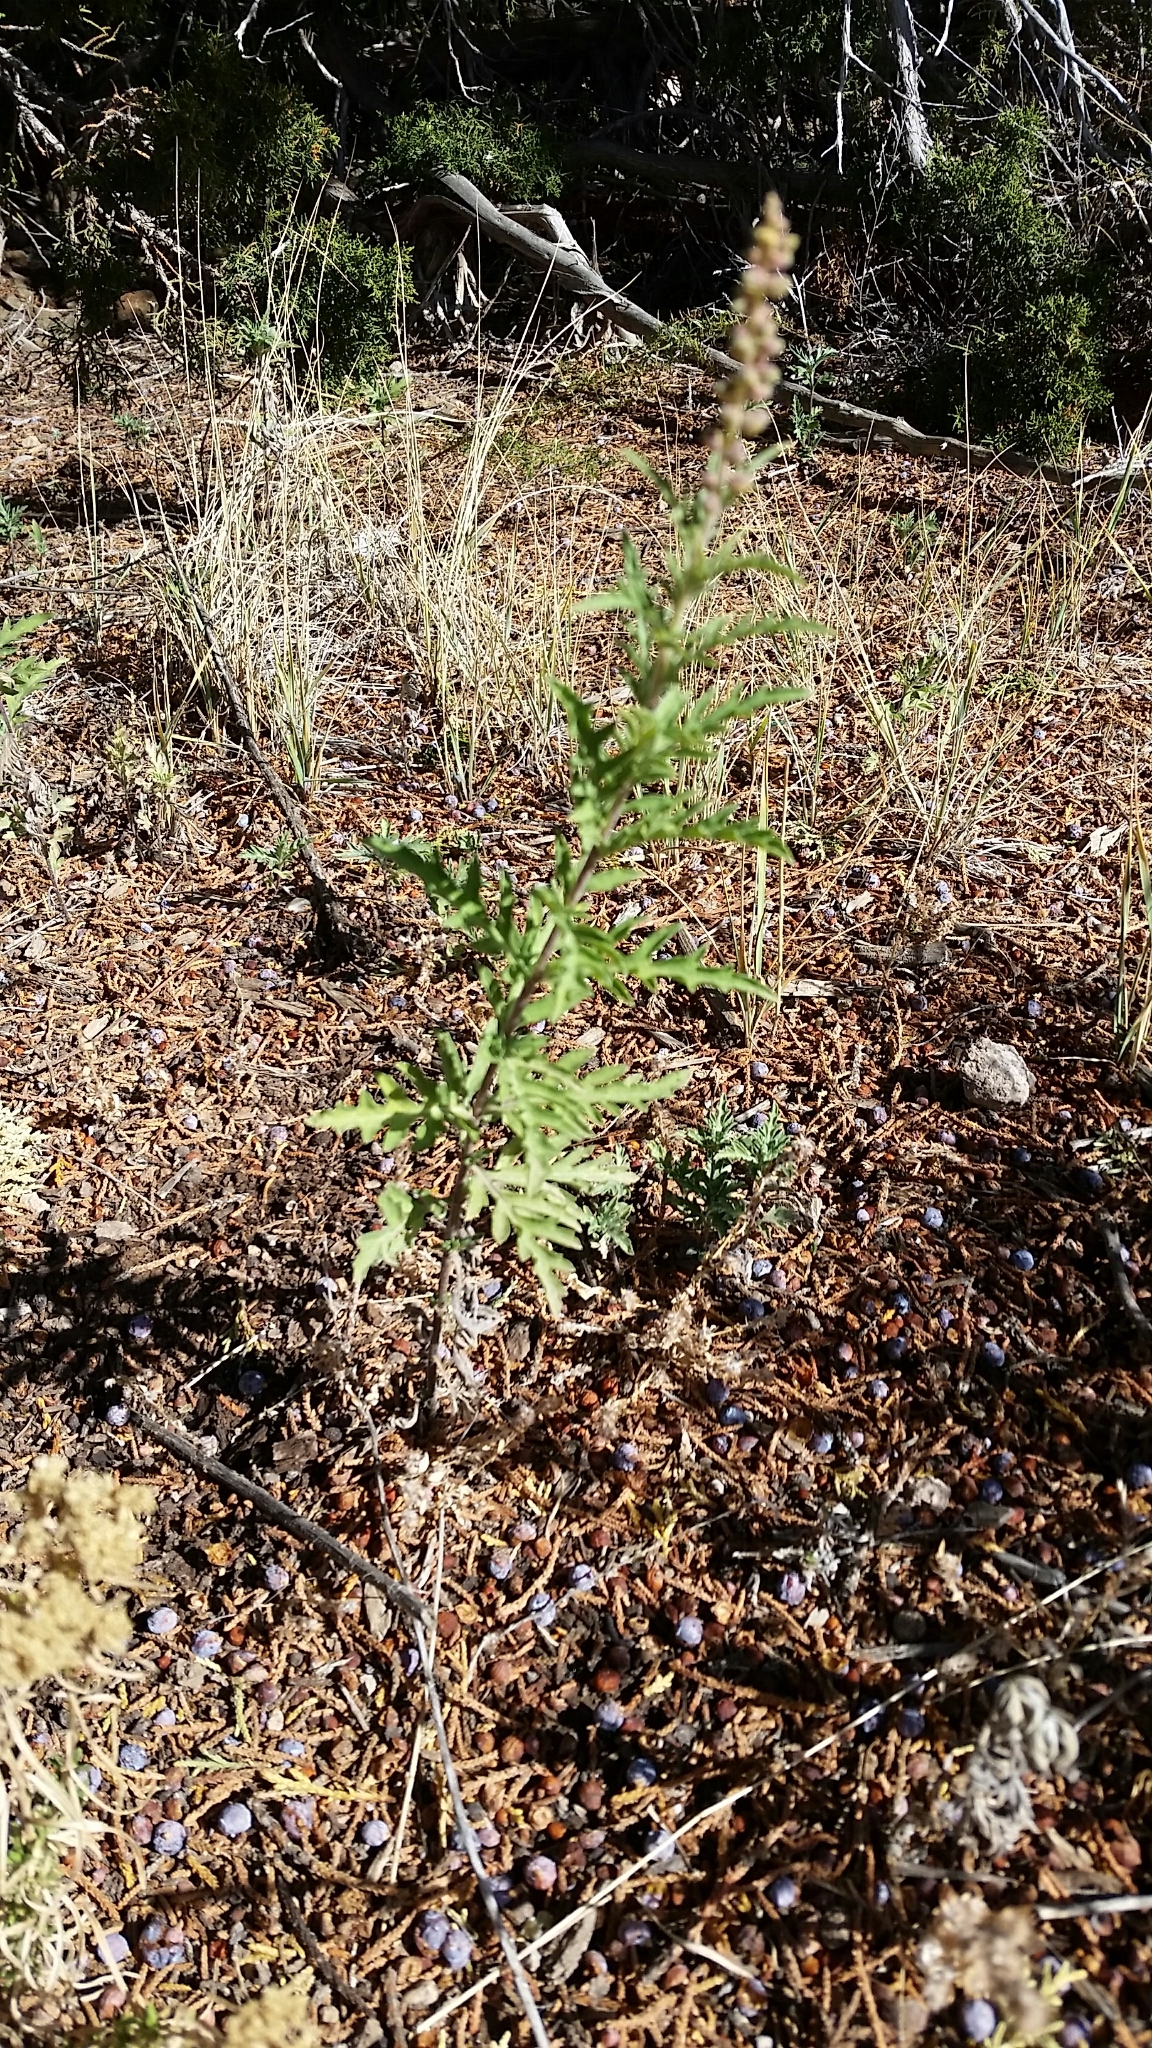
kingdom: Plantae
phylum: Tracheophyta
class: Magnoliopsida
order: Asterales
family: Asteraceae
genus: Ambrosia
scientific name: Ambrosia psilostachya
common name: Perennial ragweed
